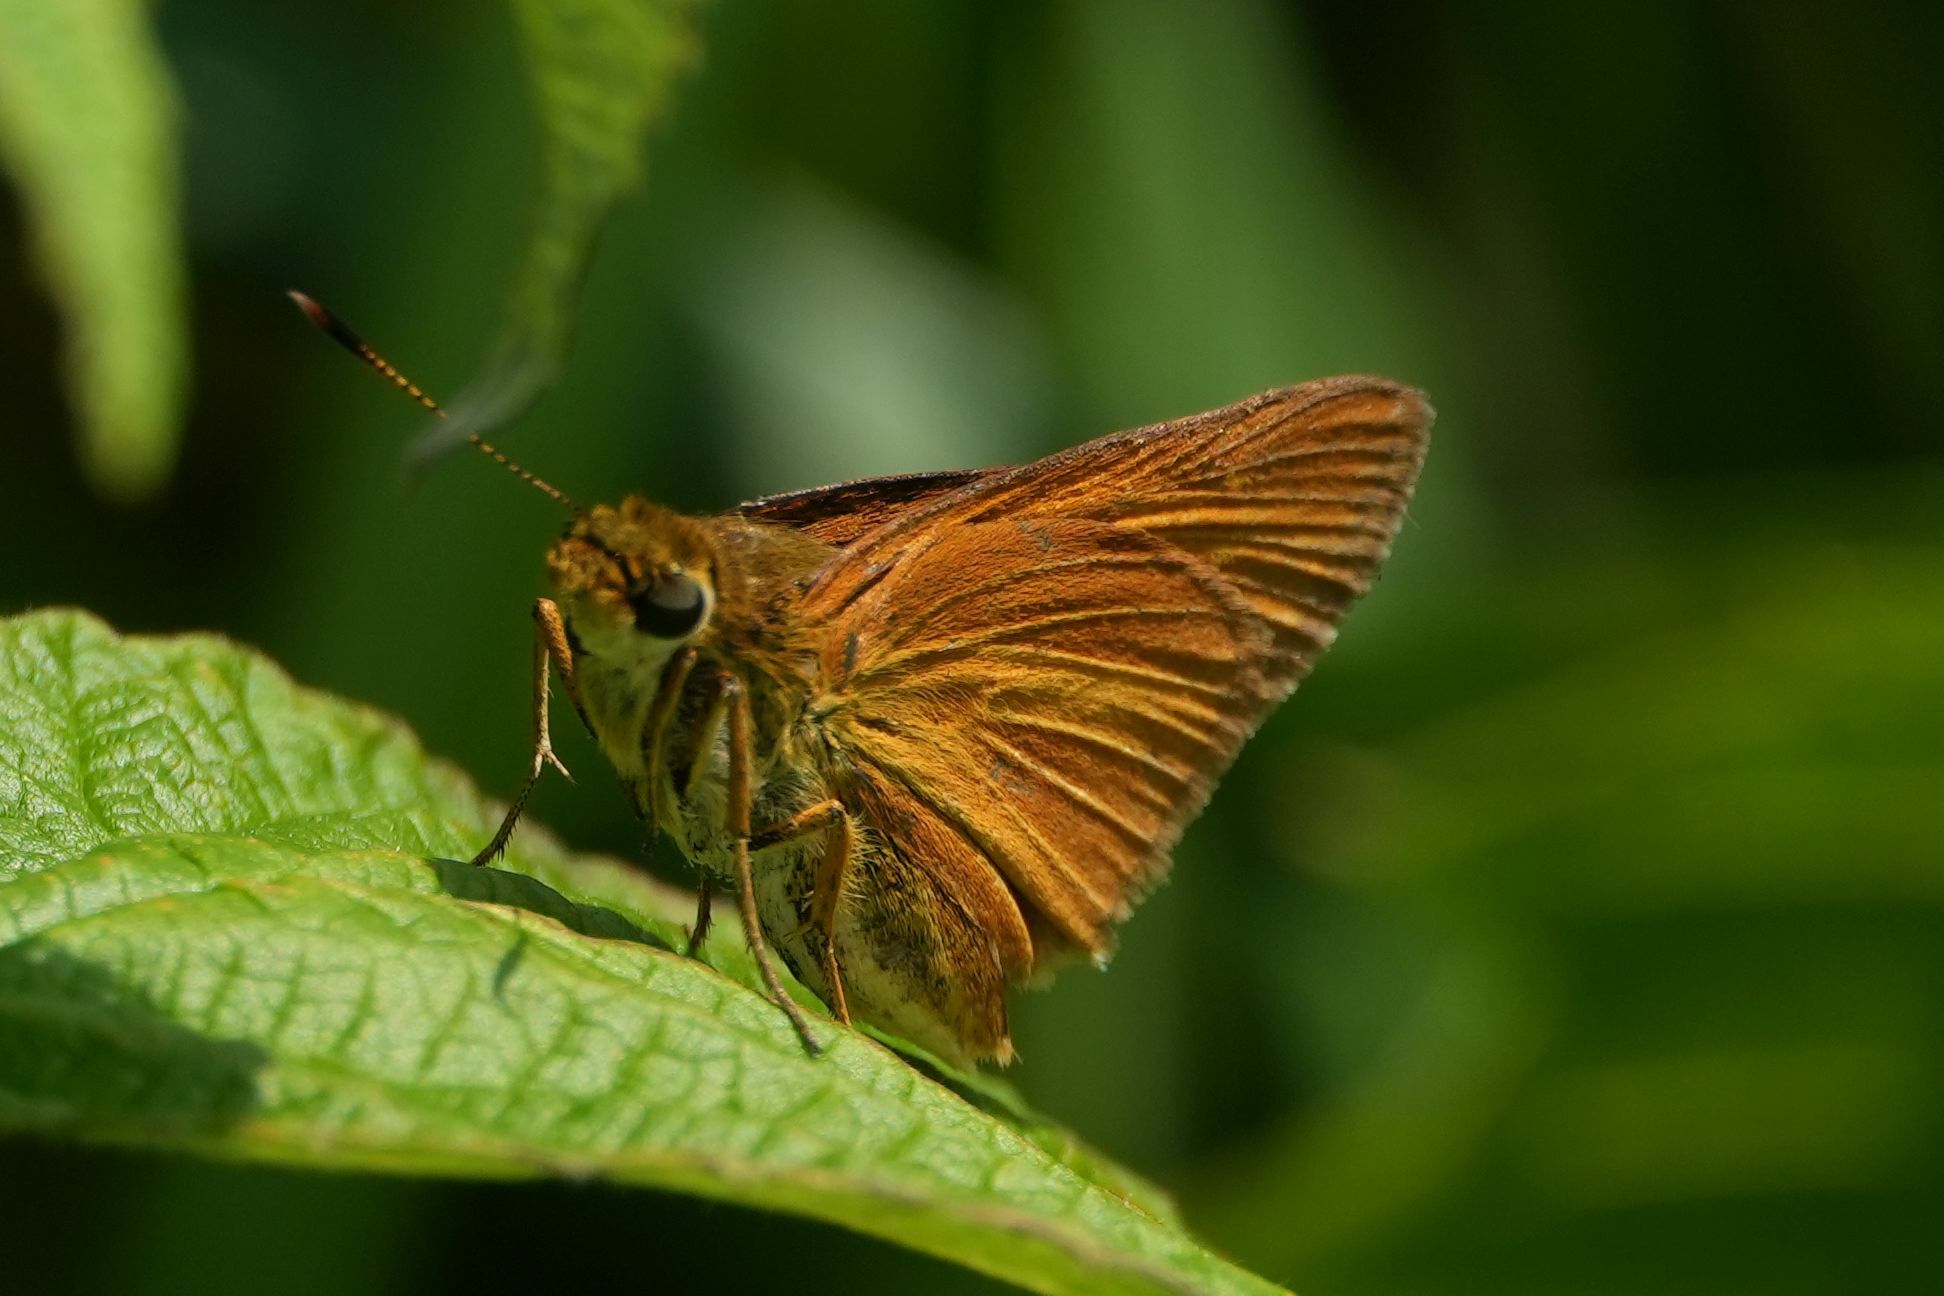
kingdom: Animalia
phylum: Arthropoda
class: Insecta
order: Lepidoptera
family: Hesperiidae
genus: Euphyes
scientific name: Euphyes dion
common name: Dion skipper
